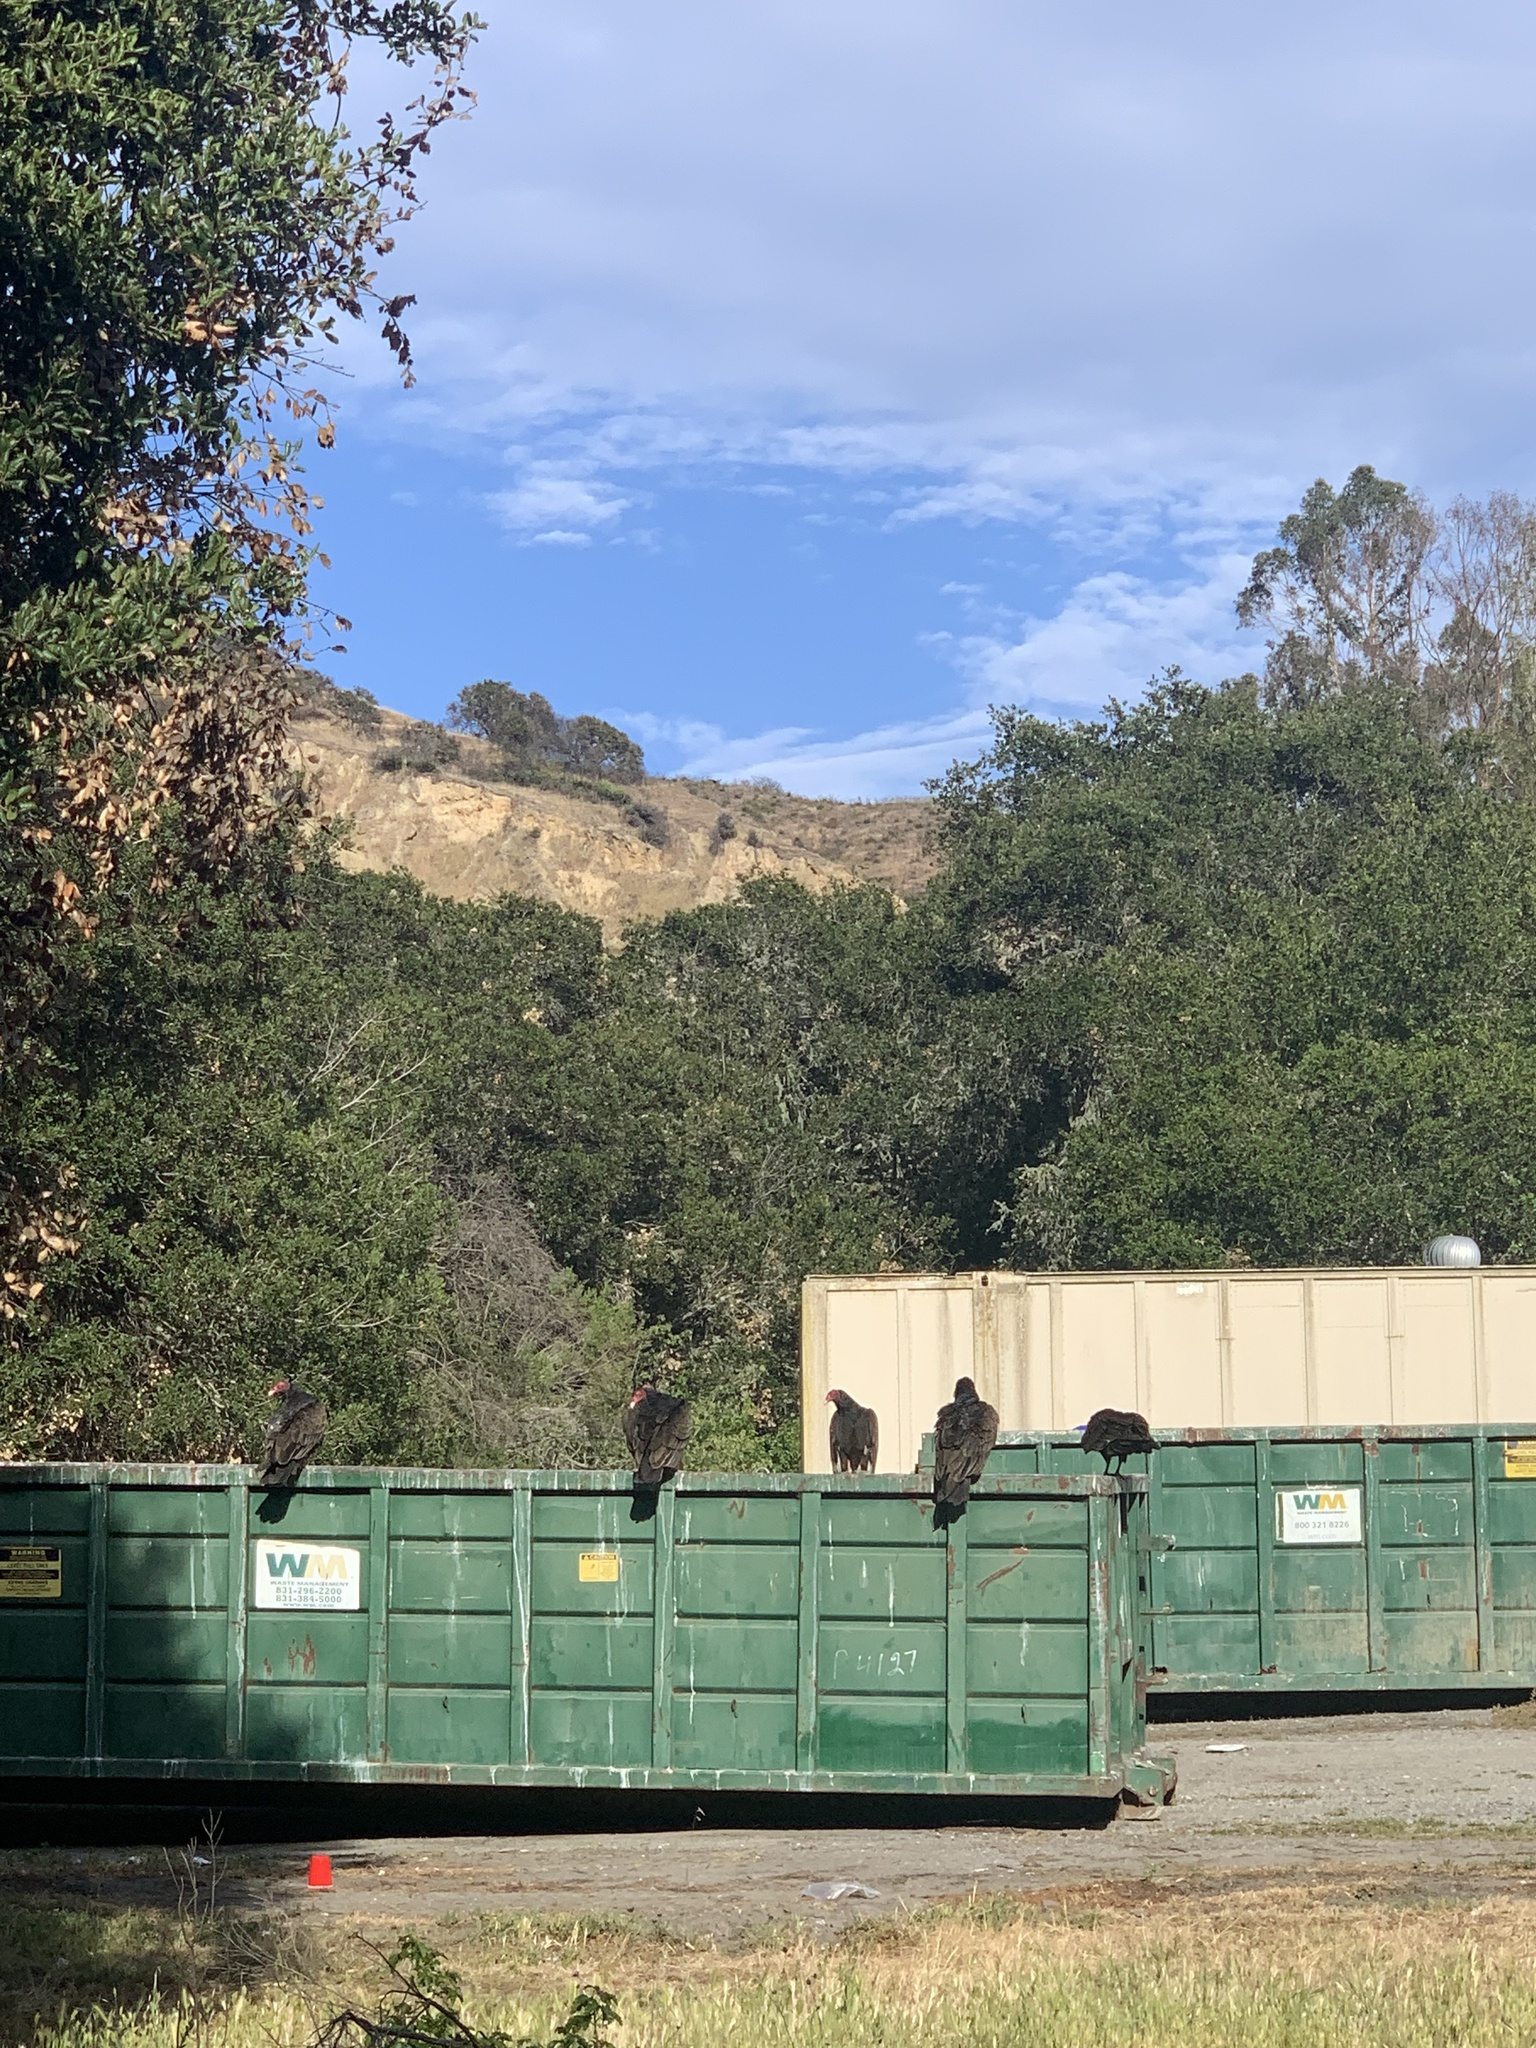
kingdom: Animalia
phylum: Chordata
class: Aves
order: Accipitriformes
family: Cathartidae
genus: Cathartes
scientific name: Cathartes aura
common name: Turkey vulture
